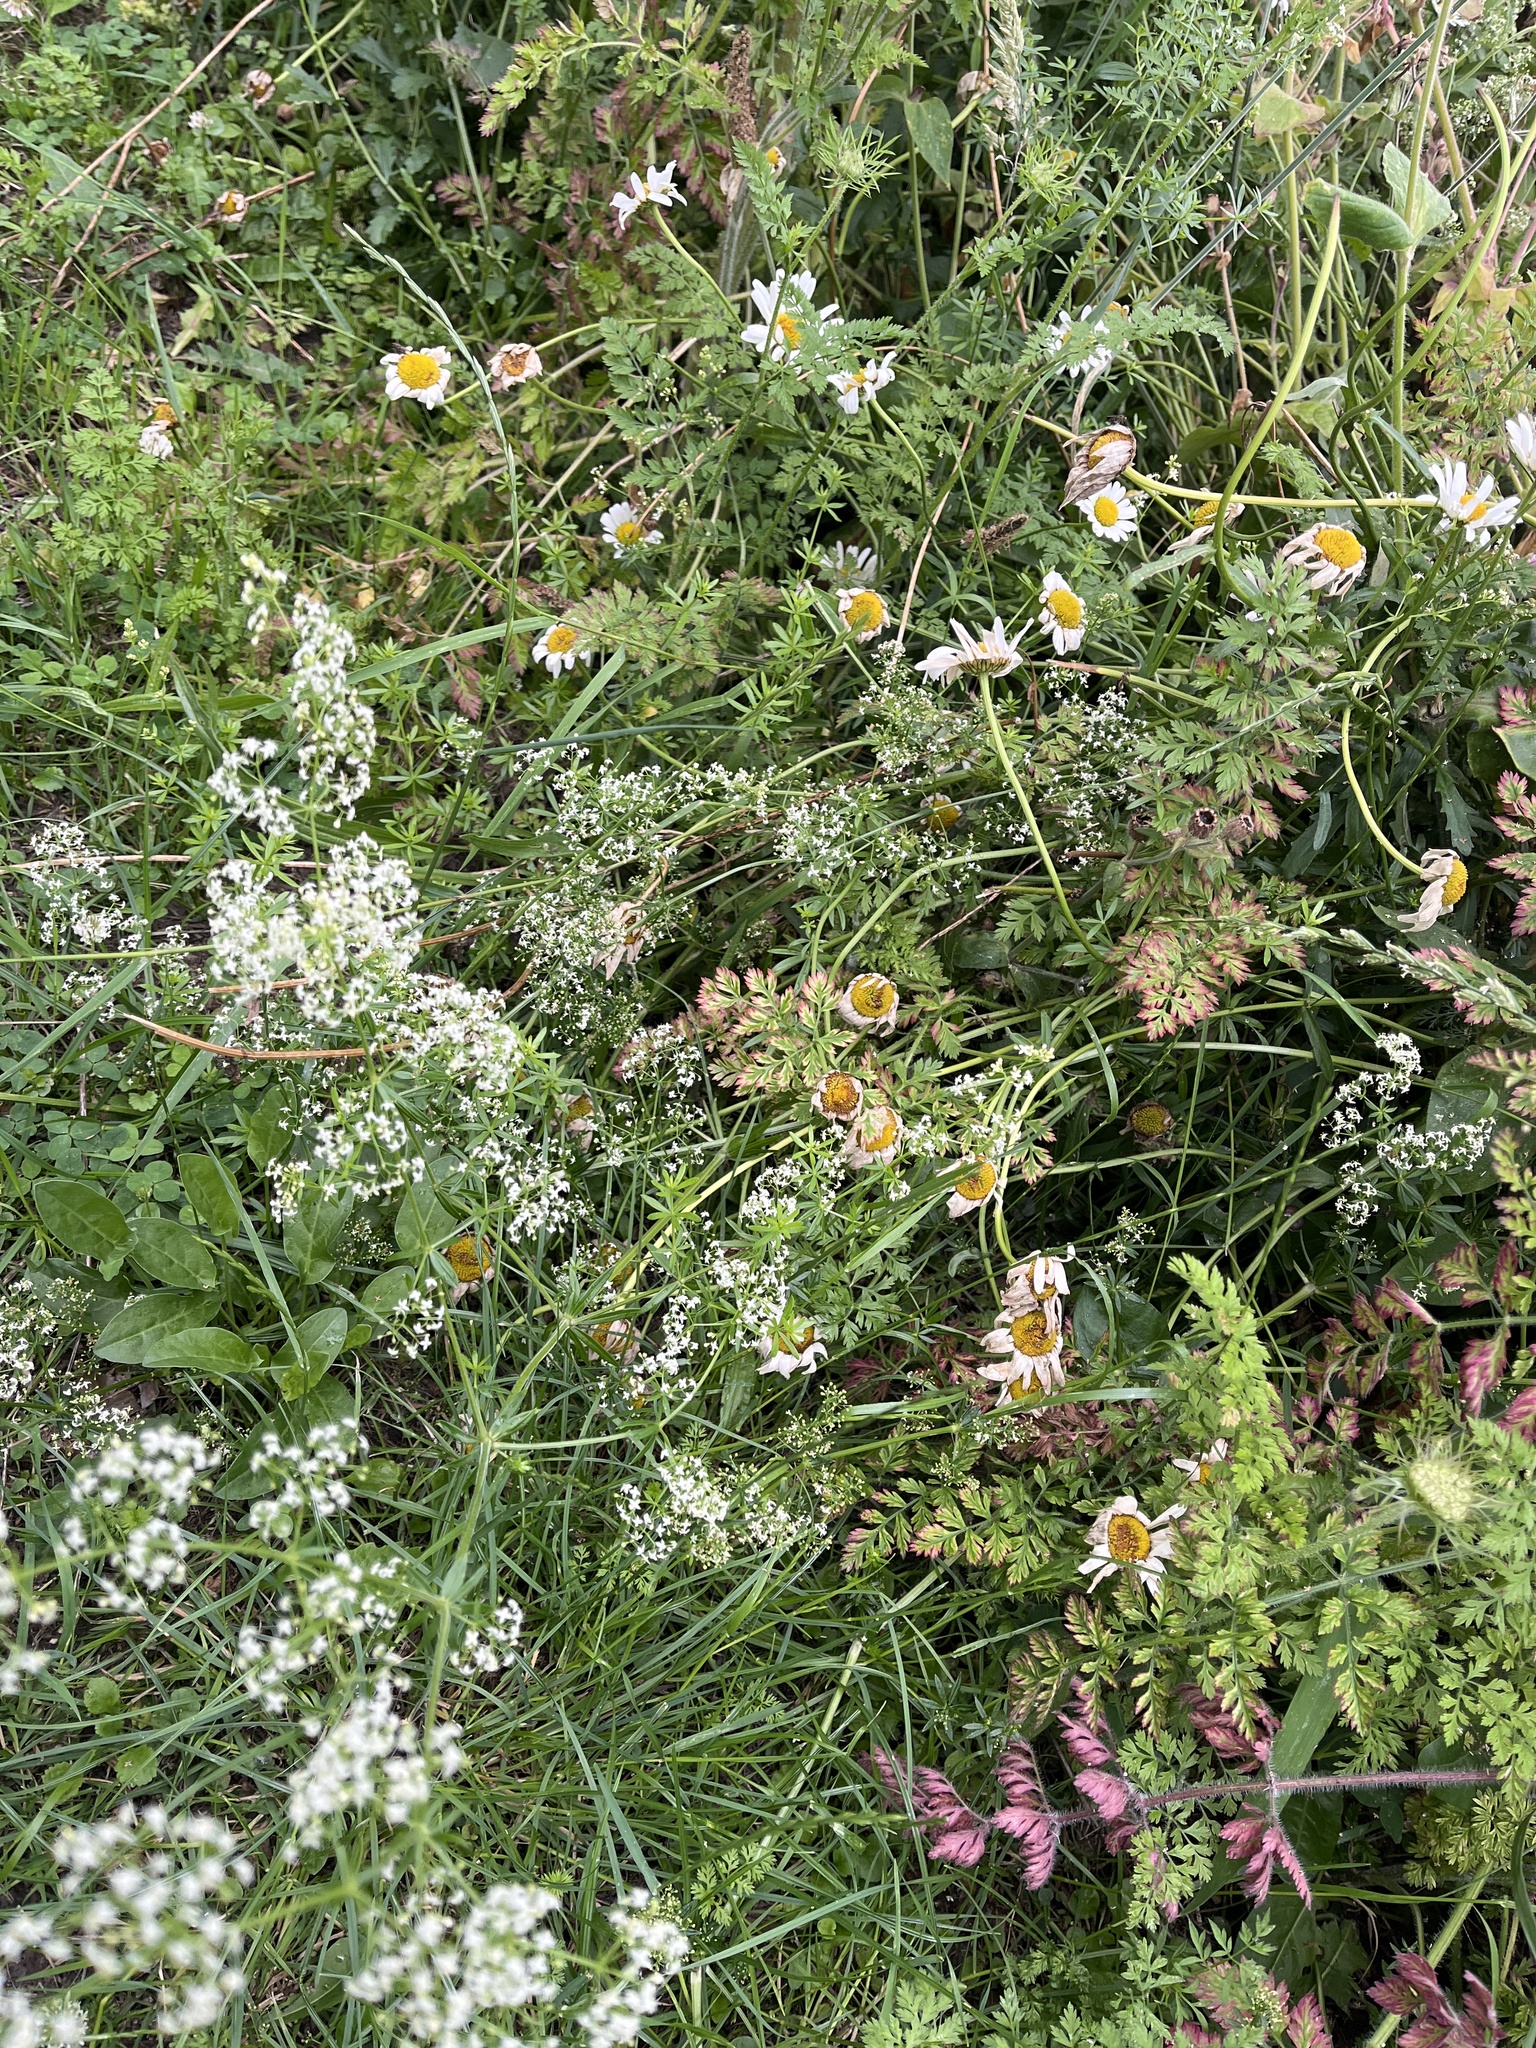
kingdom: Plantae
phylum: Tracheophyta
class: Magnoliopsida
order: Gentianales
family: Rubiaceae
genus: Galium
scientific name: Galium album
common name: White bedstraw
